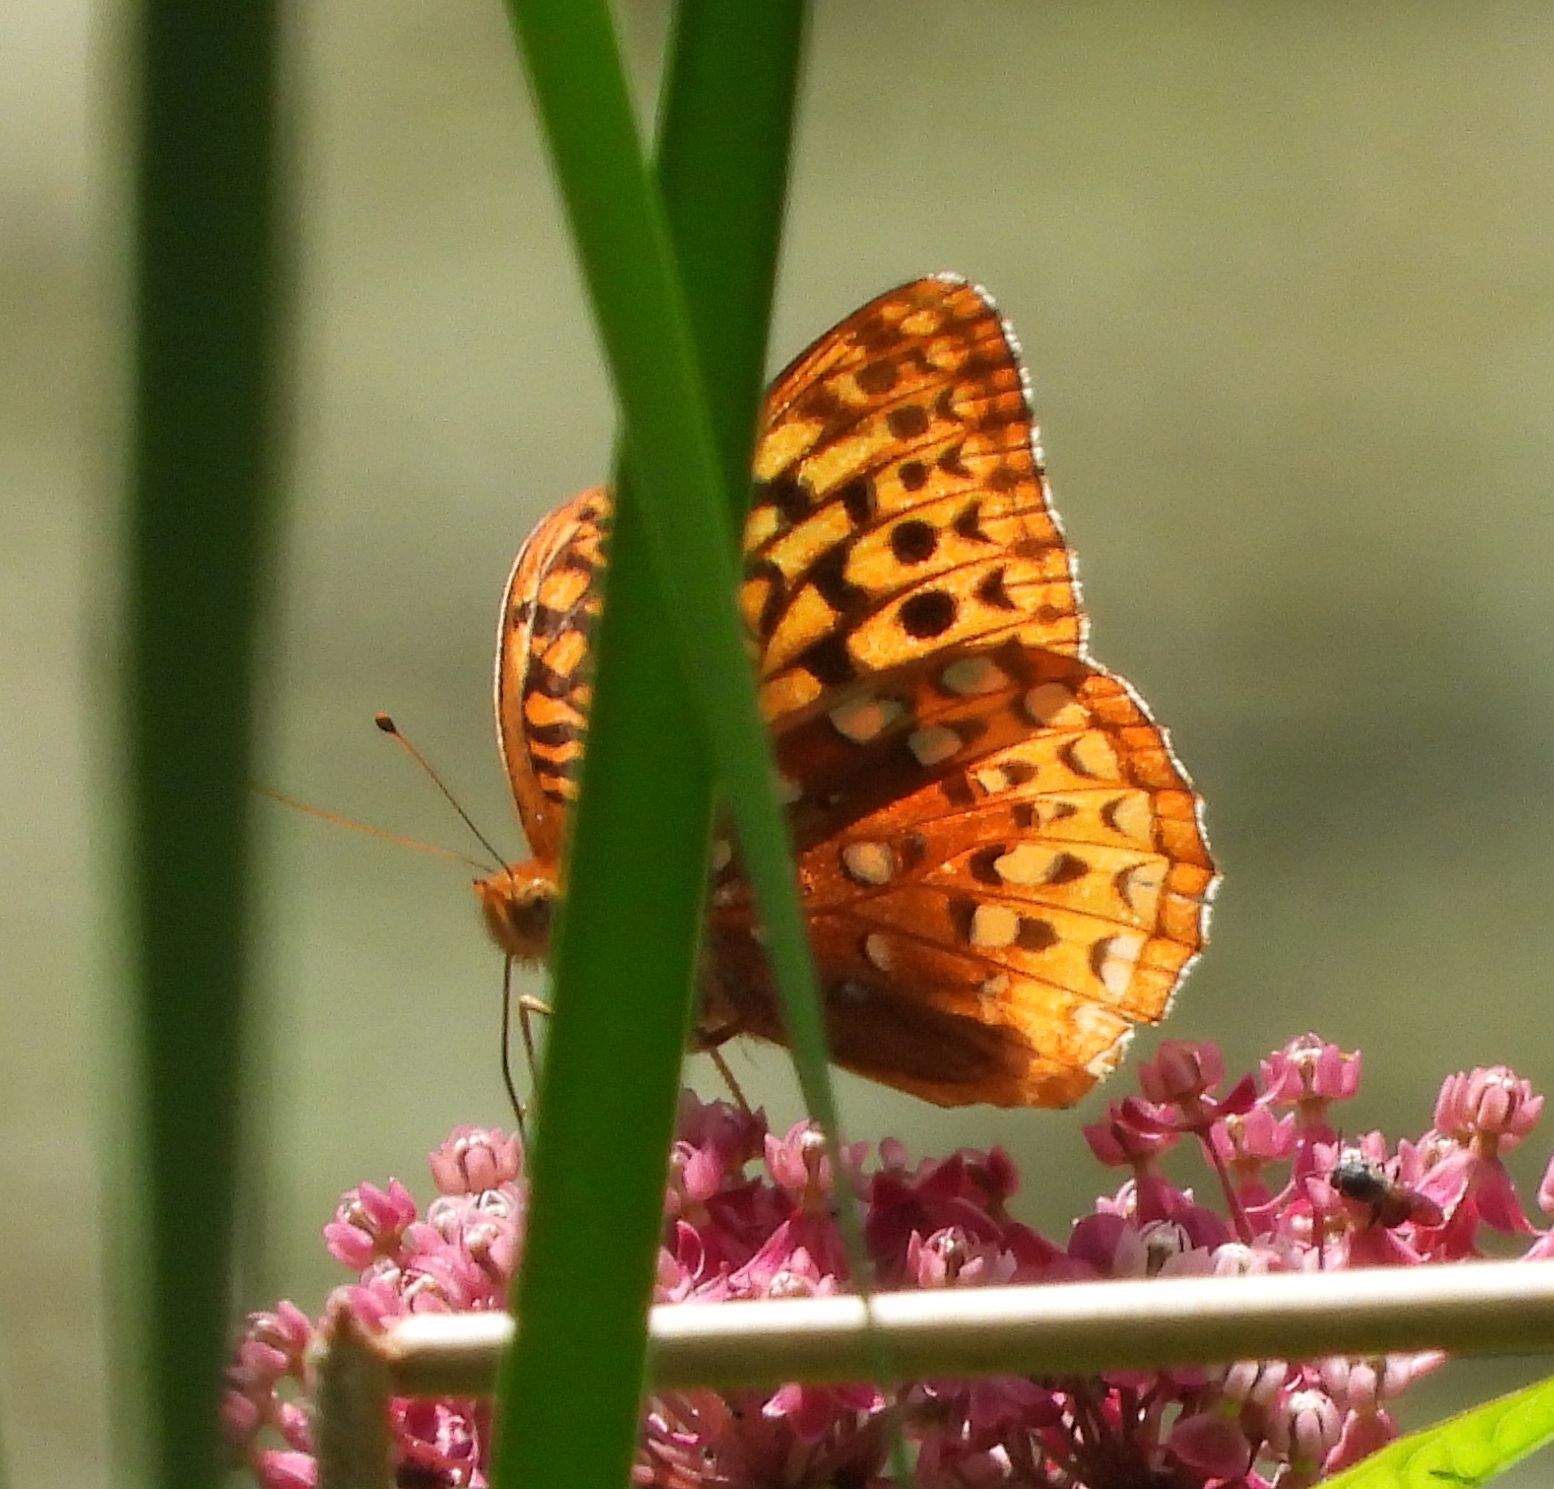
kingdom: Animalia
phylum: Arthropoda
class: Insecta
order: Lepidoptera
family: Nymphalidae
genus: Speyeria
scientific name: Speyeria cybele
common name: Great spangled fritillary
